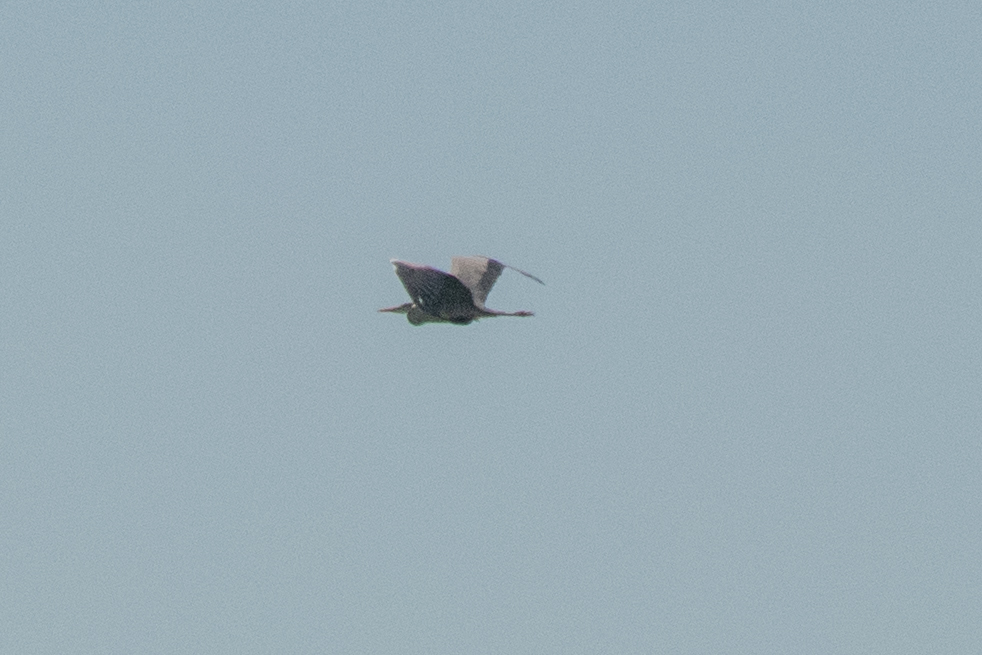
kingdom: Animalia
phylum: Chordata
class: Aves
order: Pelecaniformes
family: Ardeidae
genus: Ardea
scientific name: Ardea cinerea
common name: Grey heron
